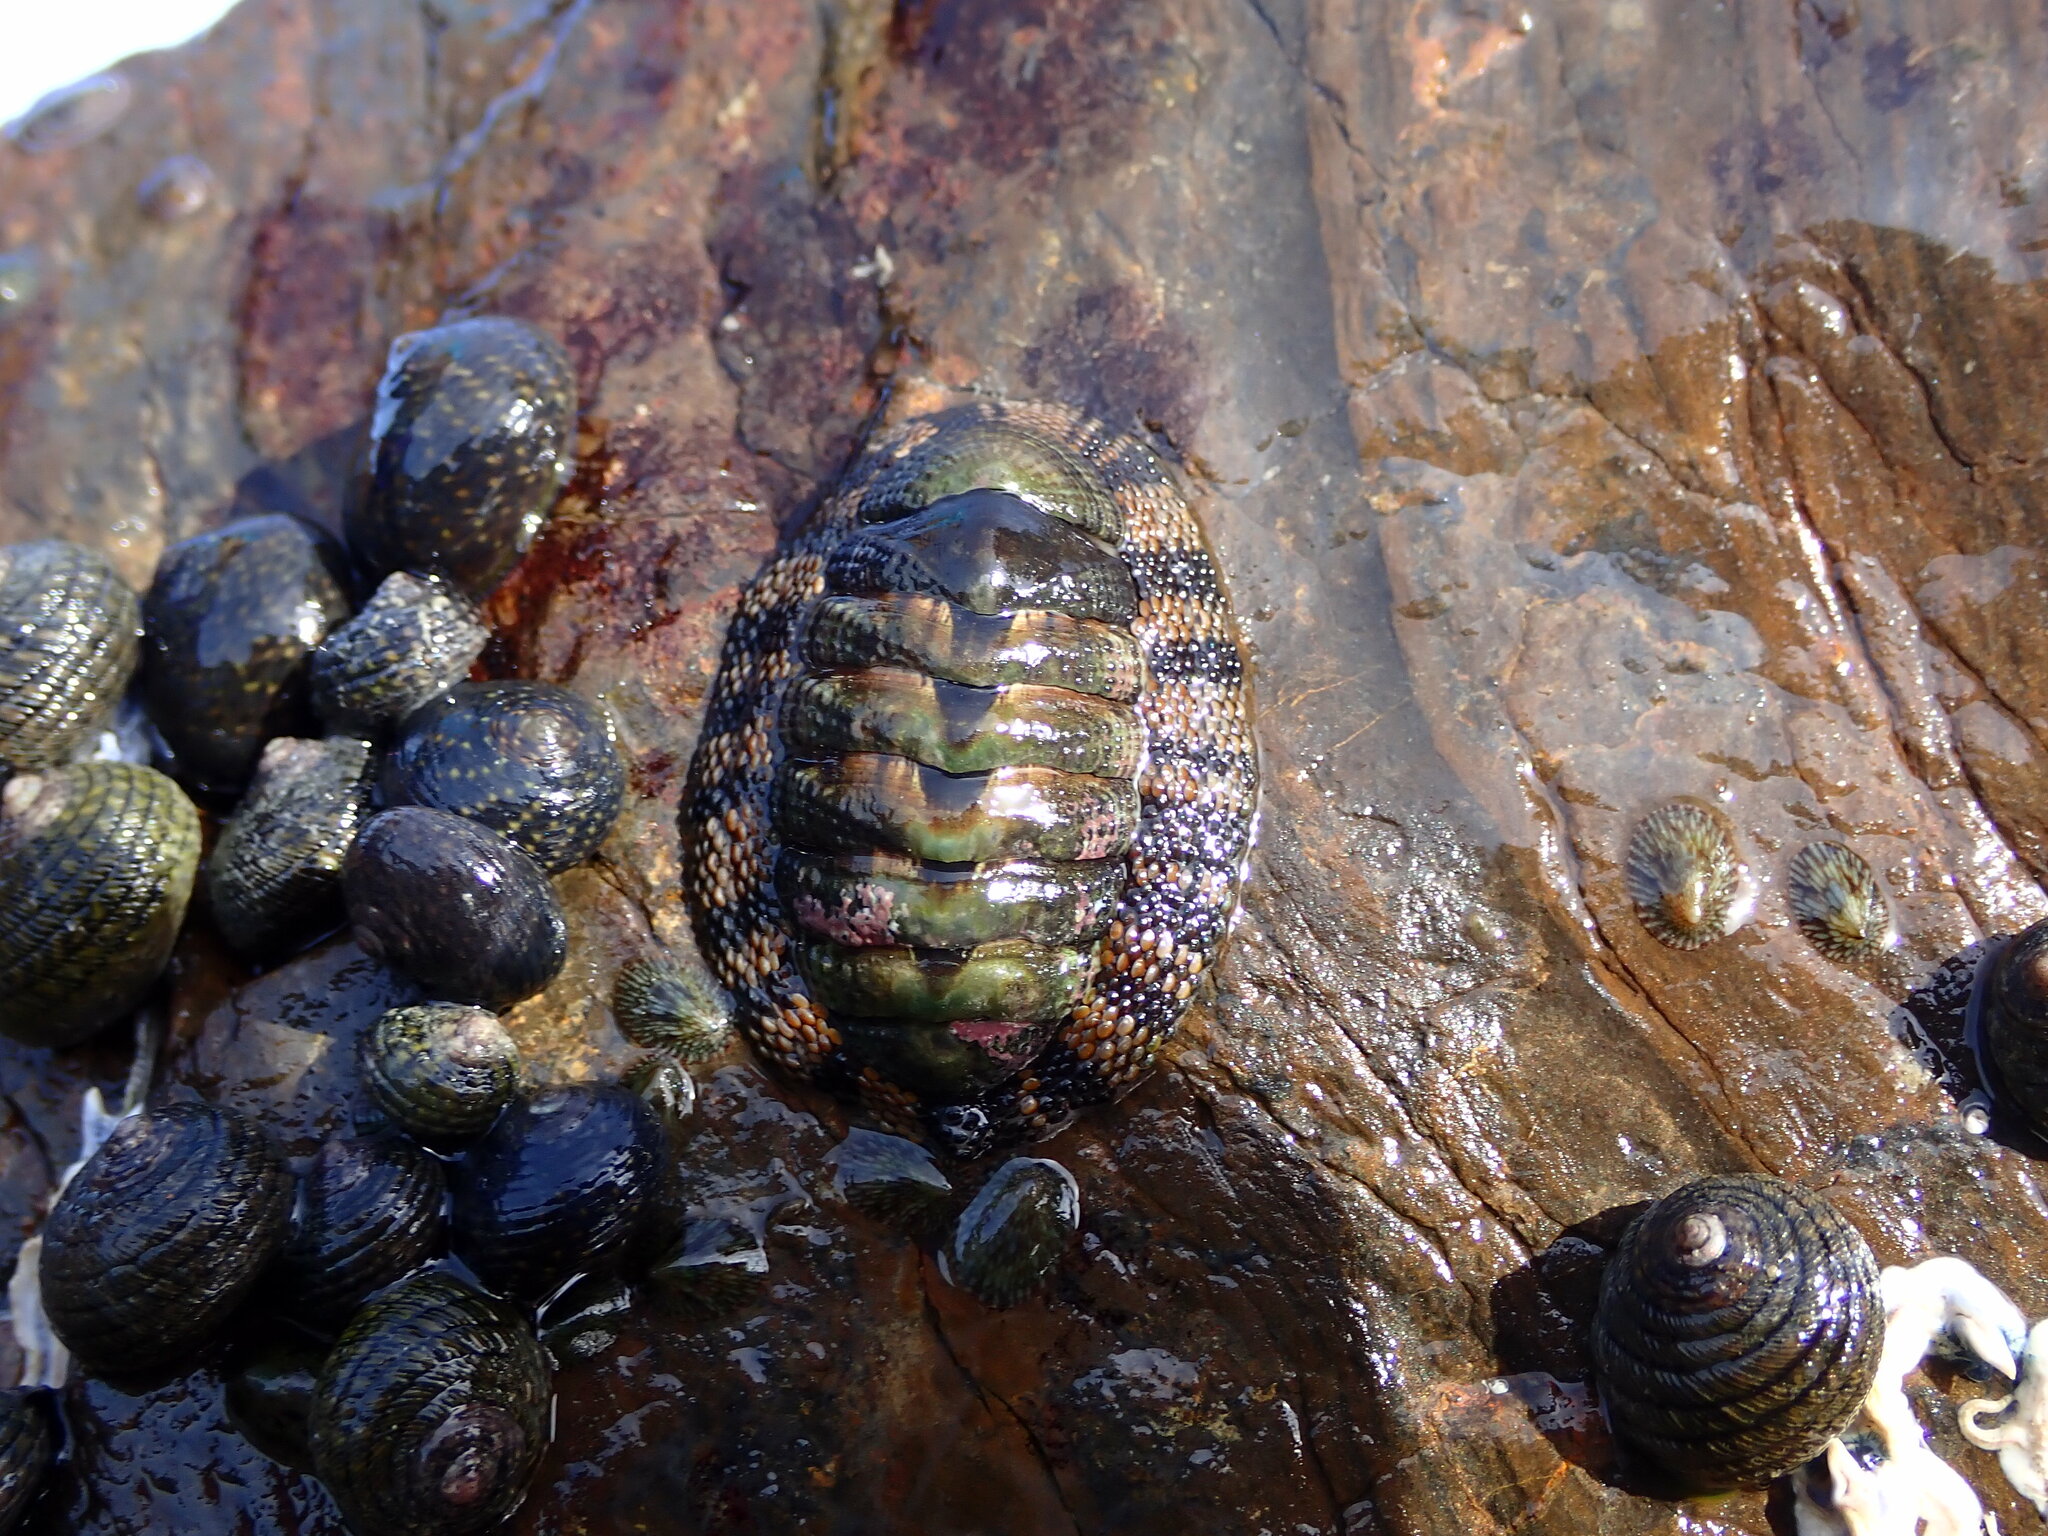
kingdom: Animalia
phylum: Mollusca
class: Polyplacophora
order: Chitonida
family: Chitonidae
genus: Sypharochiton
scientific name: Sypharochiton pelliserpentis
